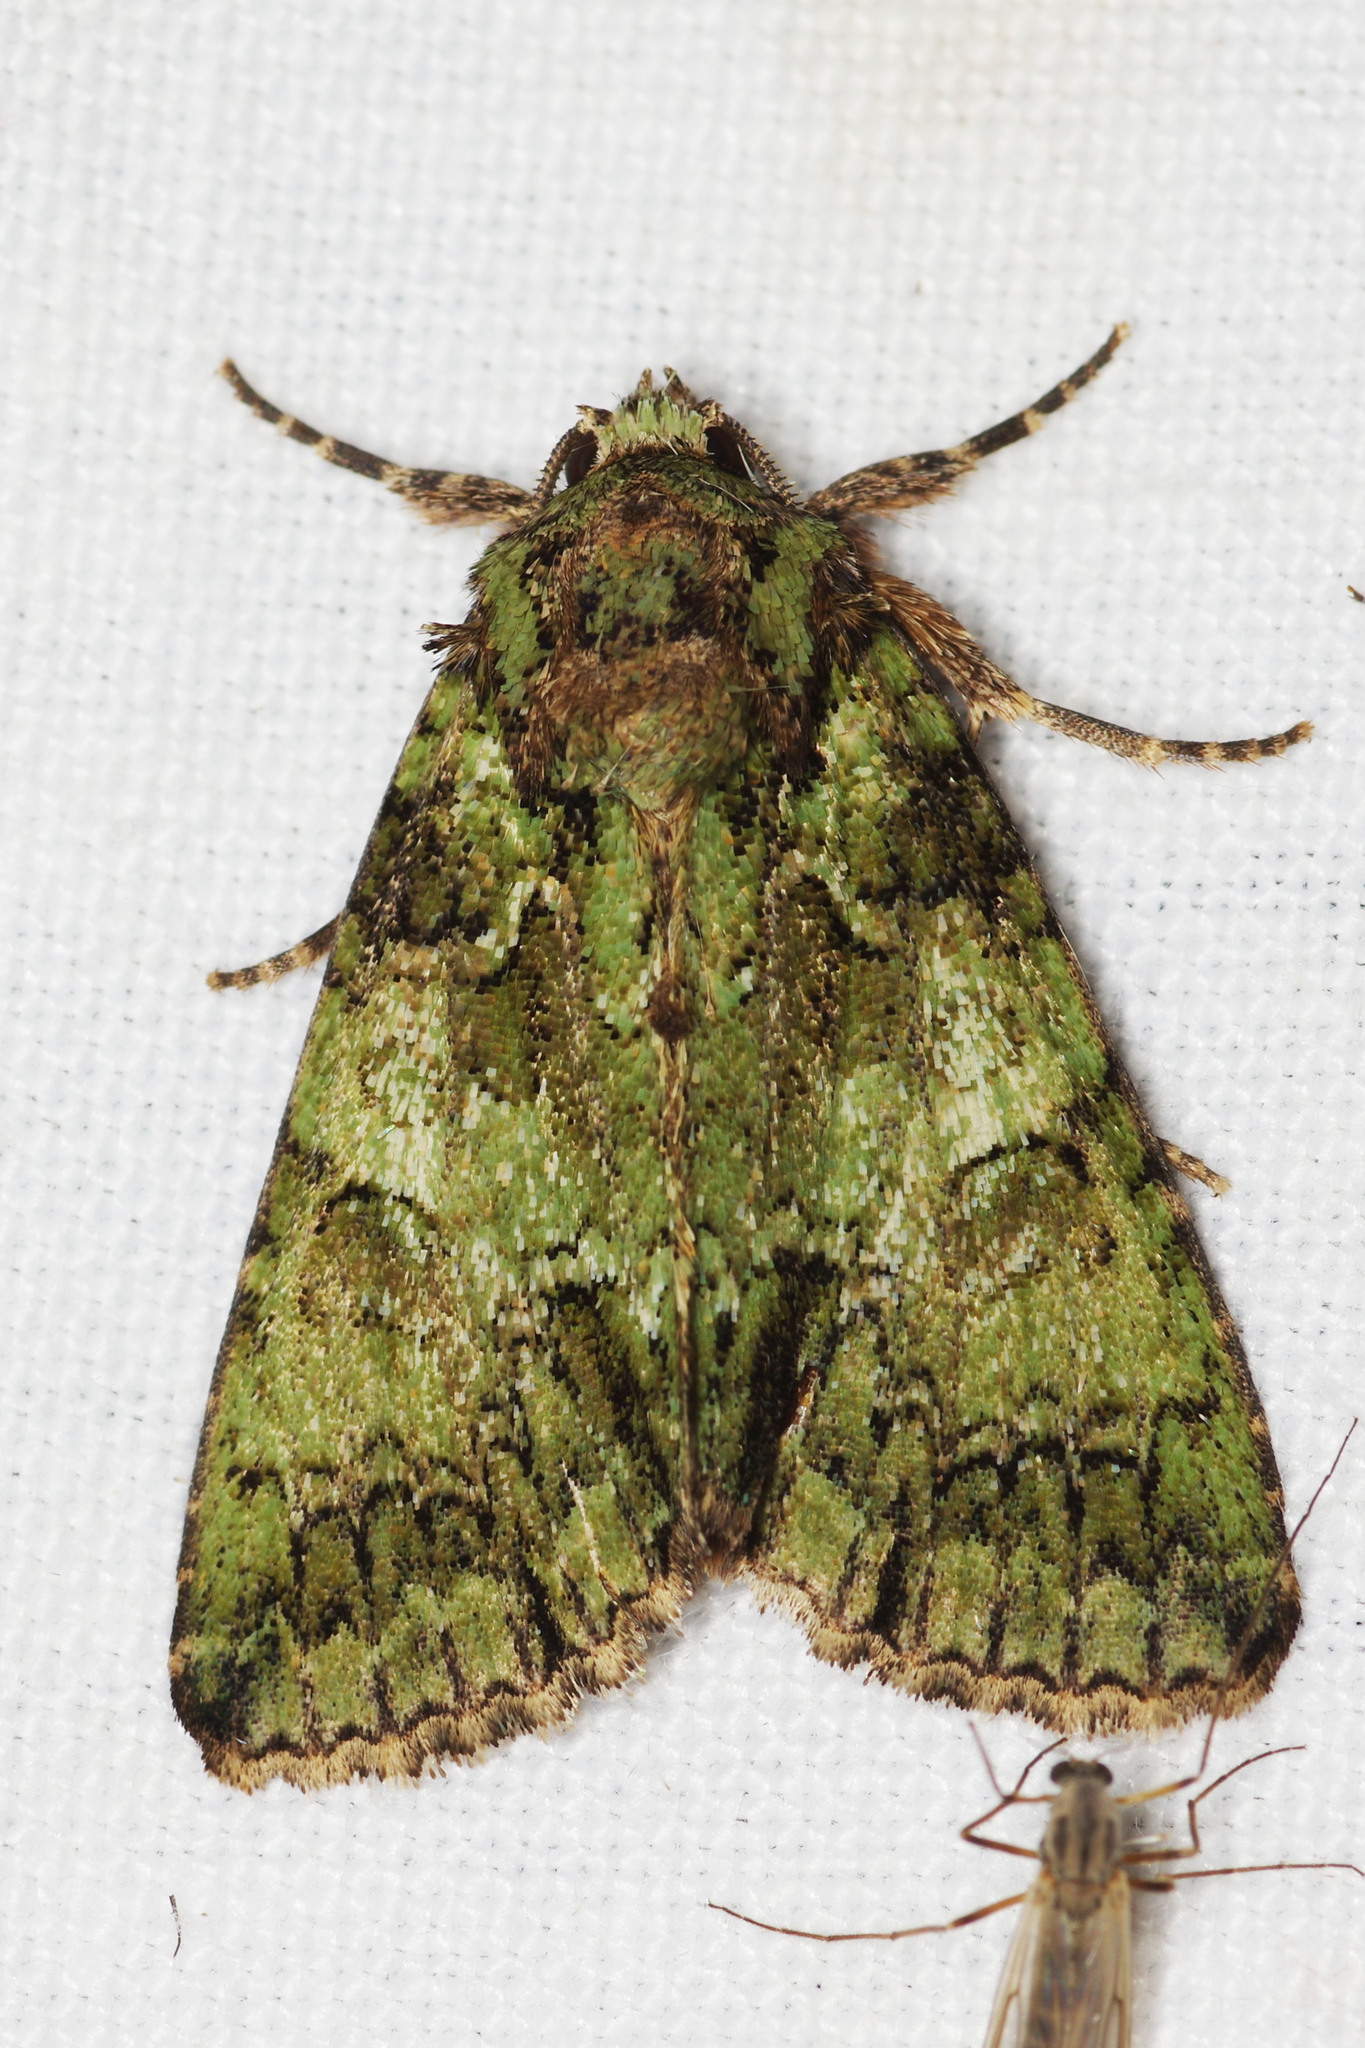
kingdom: Animalia
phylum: Arthropoda
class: Insecta
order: Lepidoptera
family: Noctuidae
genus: Polyphaenis
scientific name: Polyphaenis sericata
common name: Guernsey underwing
